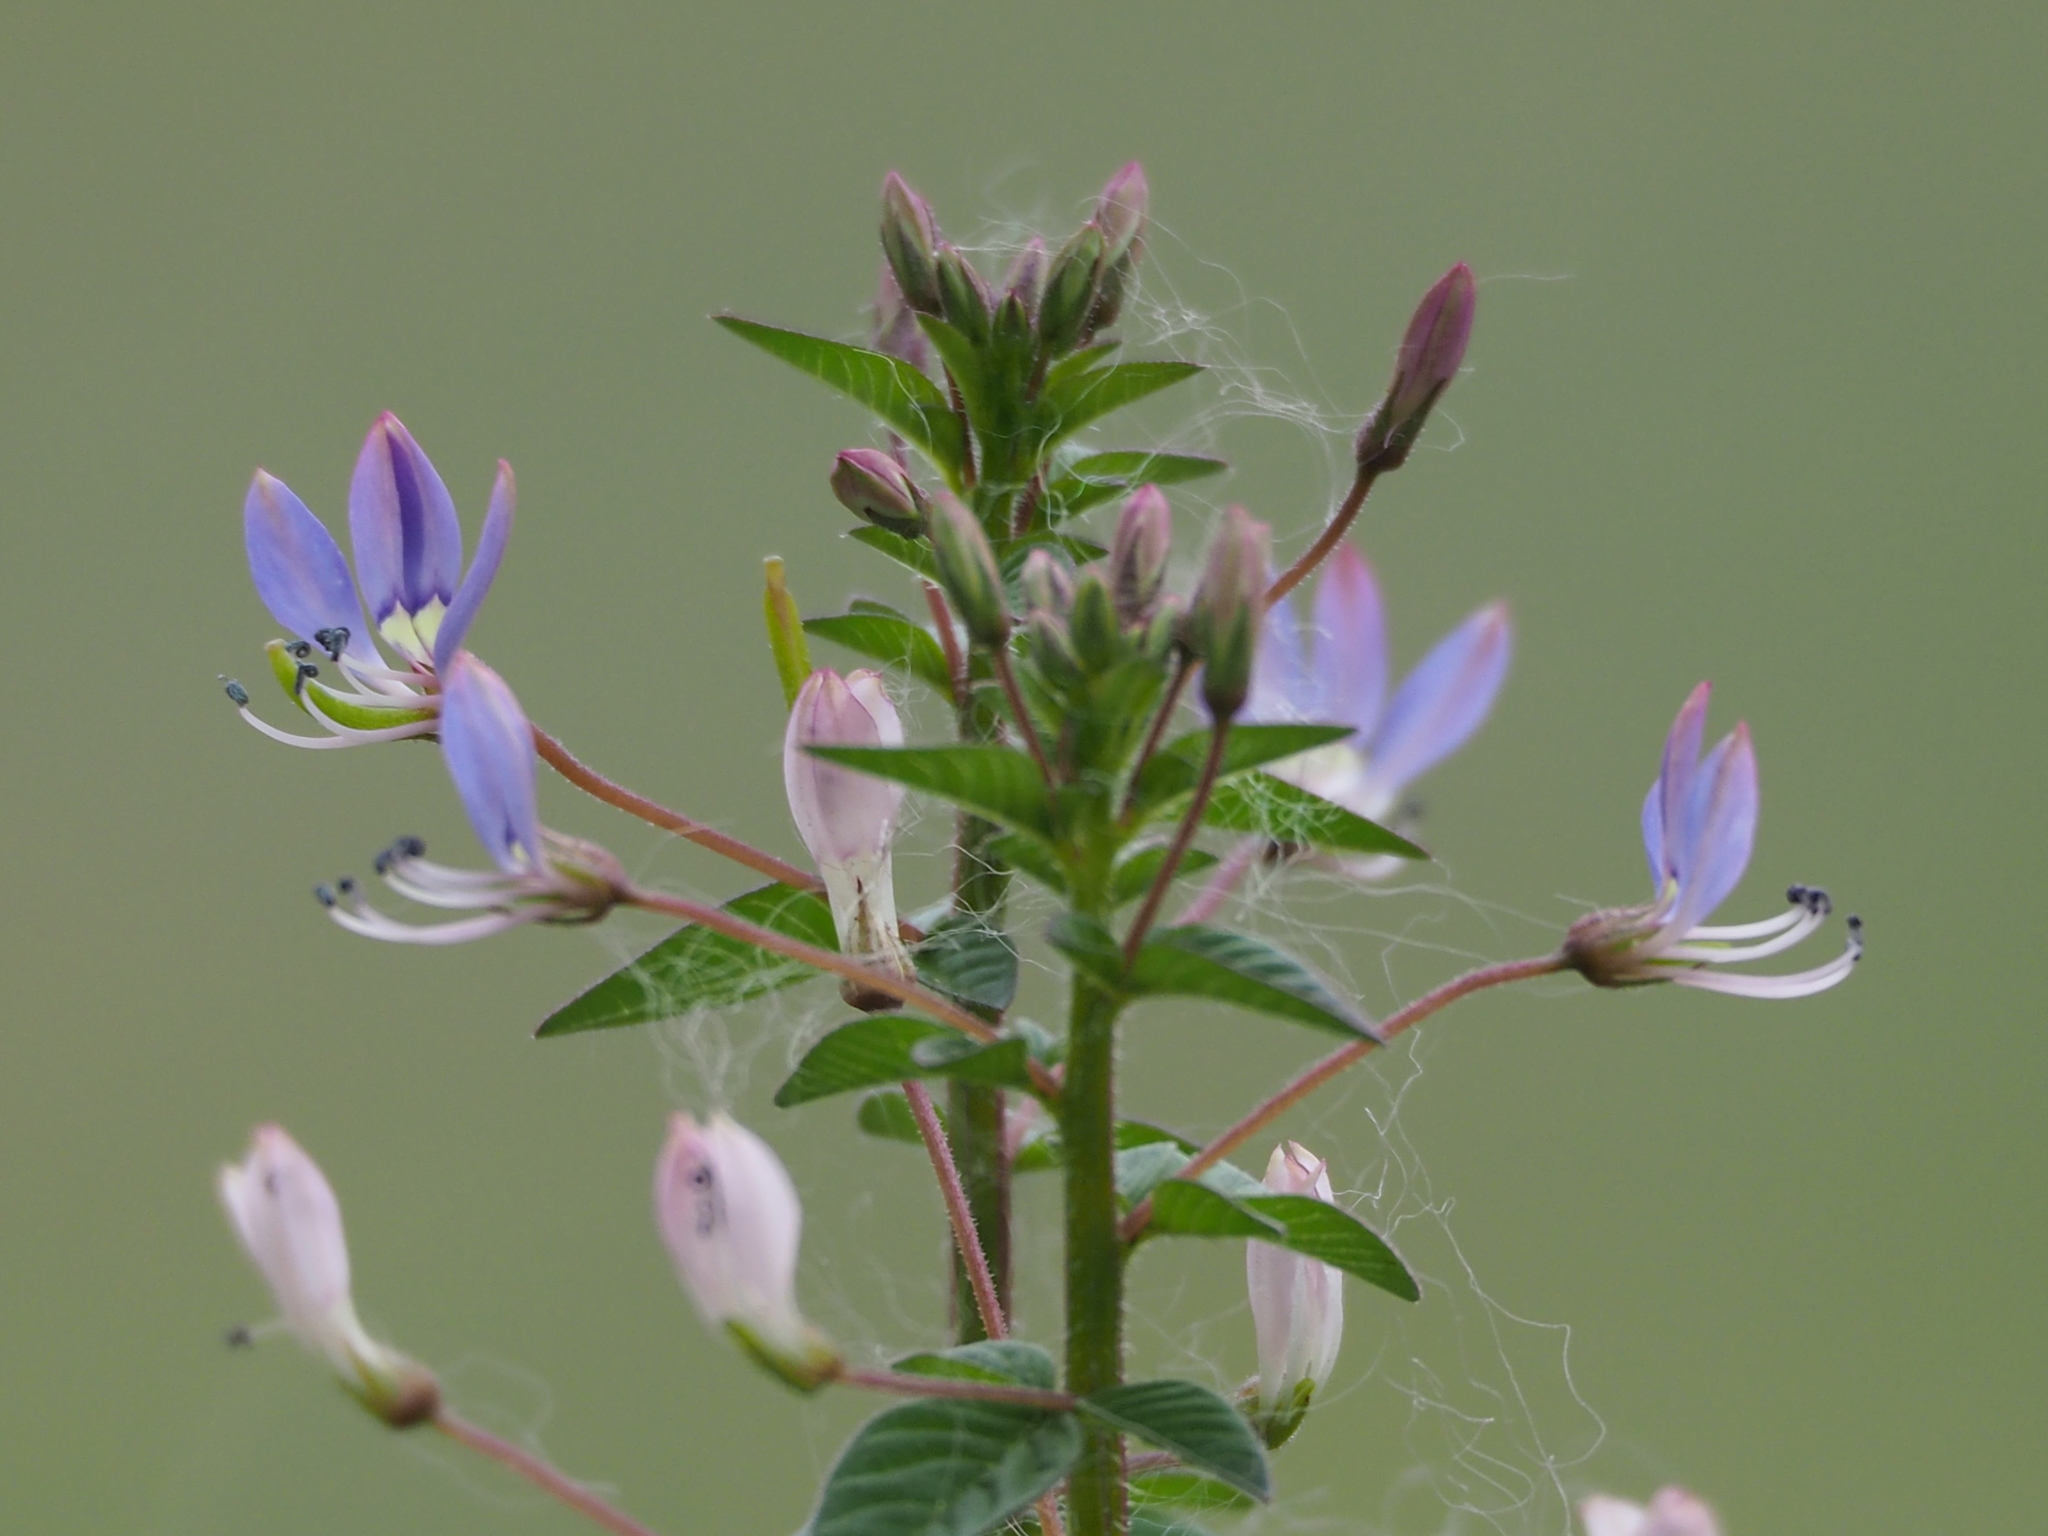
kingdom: Plantae
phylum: Tracheophyta
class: Magnoliopsida
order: Brassicales
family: Cleomaceae
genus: Sieruela
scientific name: Sieruela rutidosperma
